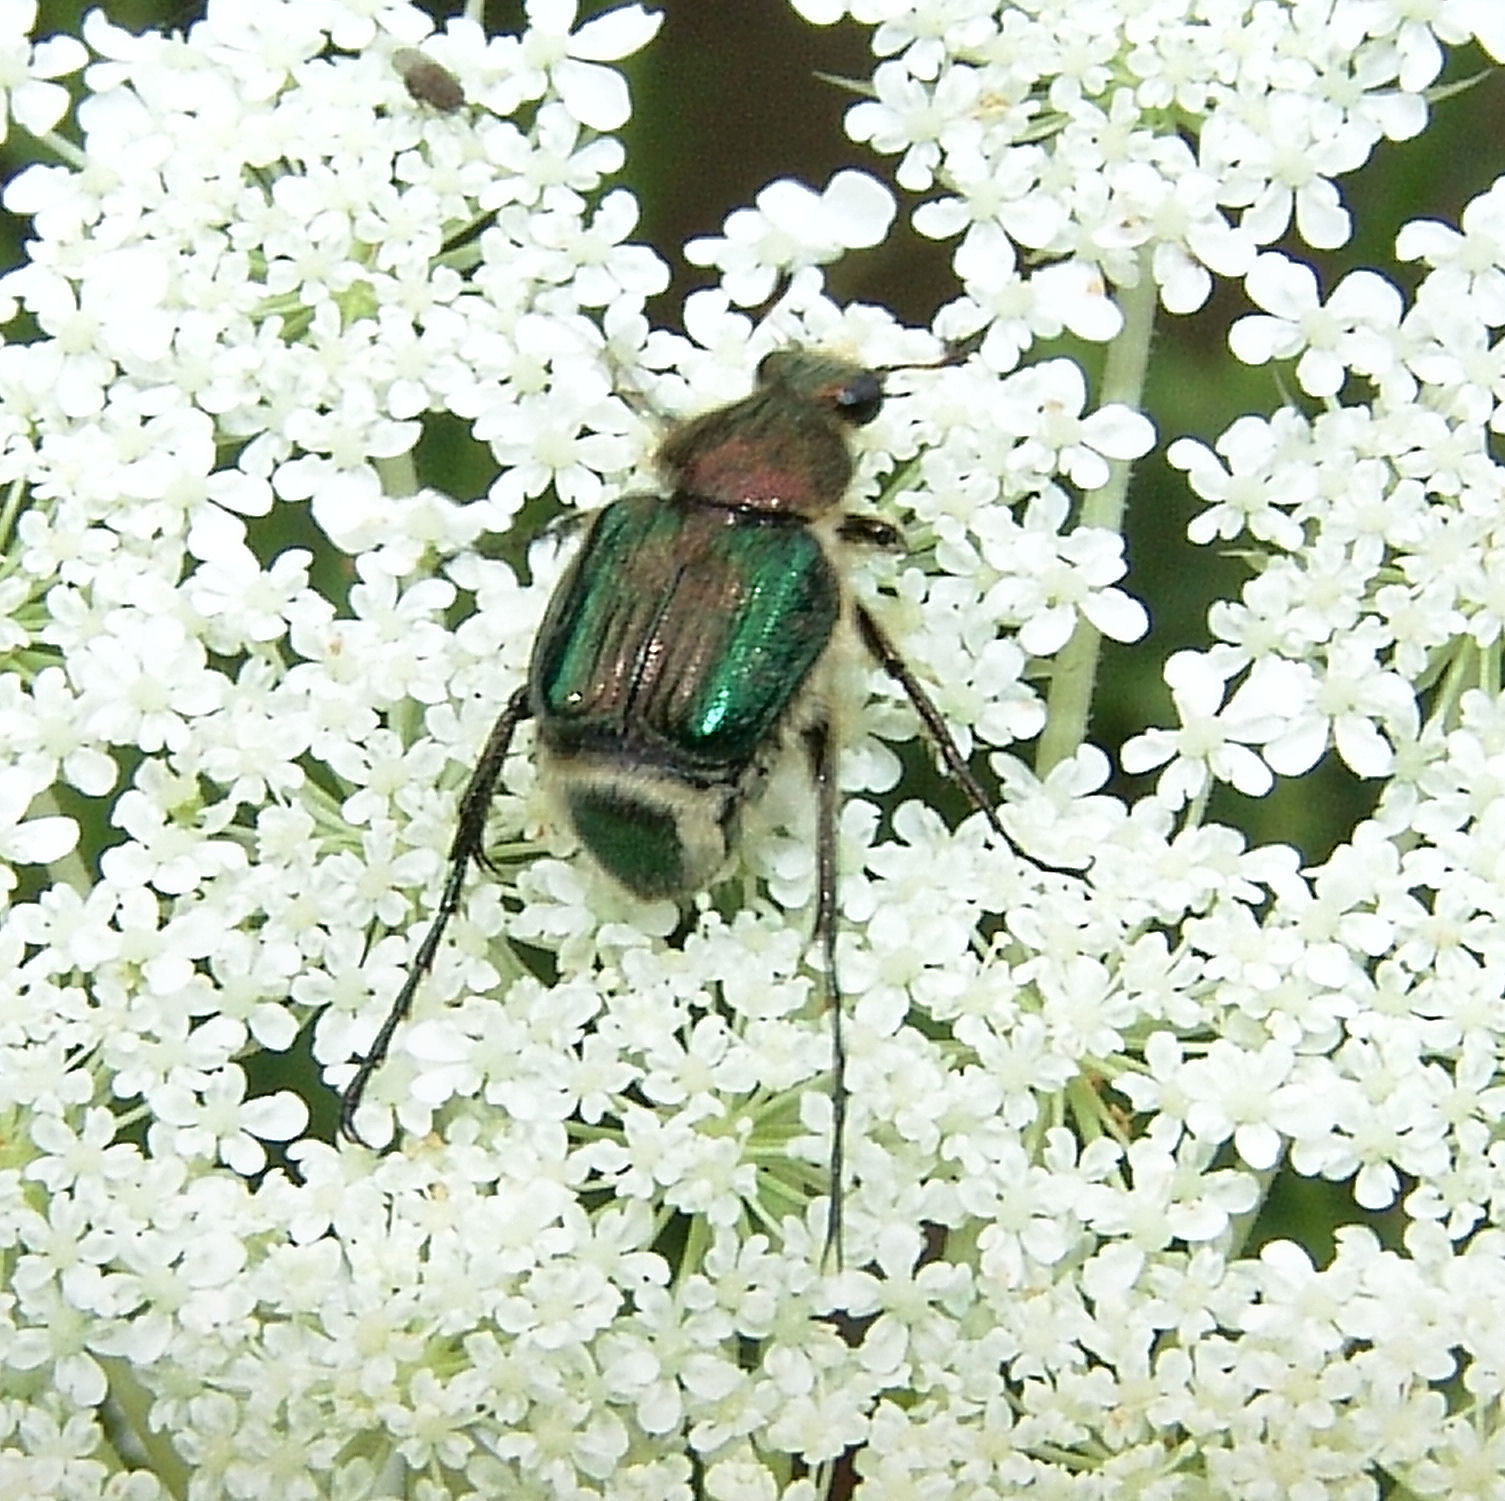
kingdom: Animalia
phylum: Arthropoda
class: Insecta
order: Coleoptera
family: Scarabaeidae
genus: Trichiotinus
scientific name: Trichiotinus lunulatus
